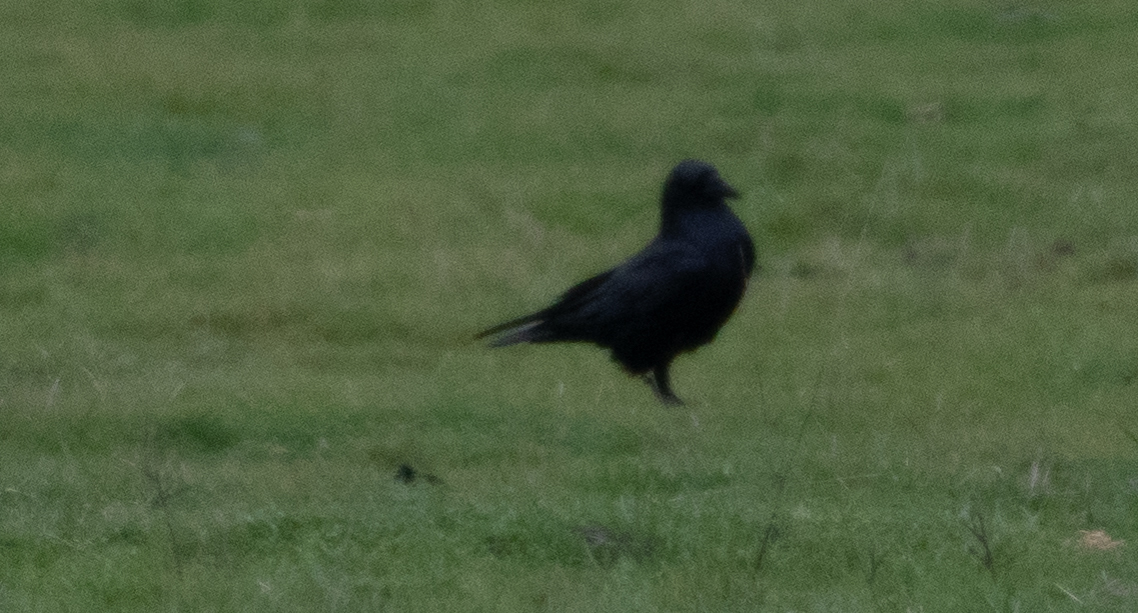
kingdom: Animalia
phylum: Chordata
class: Aves
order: Passeriformes
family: Corvidae
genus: Corvus
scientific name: Corvus brachyrhynchos
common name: American crow
